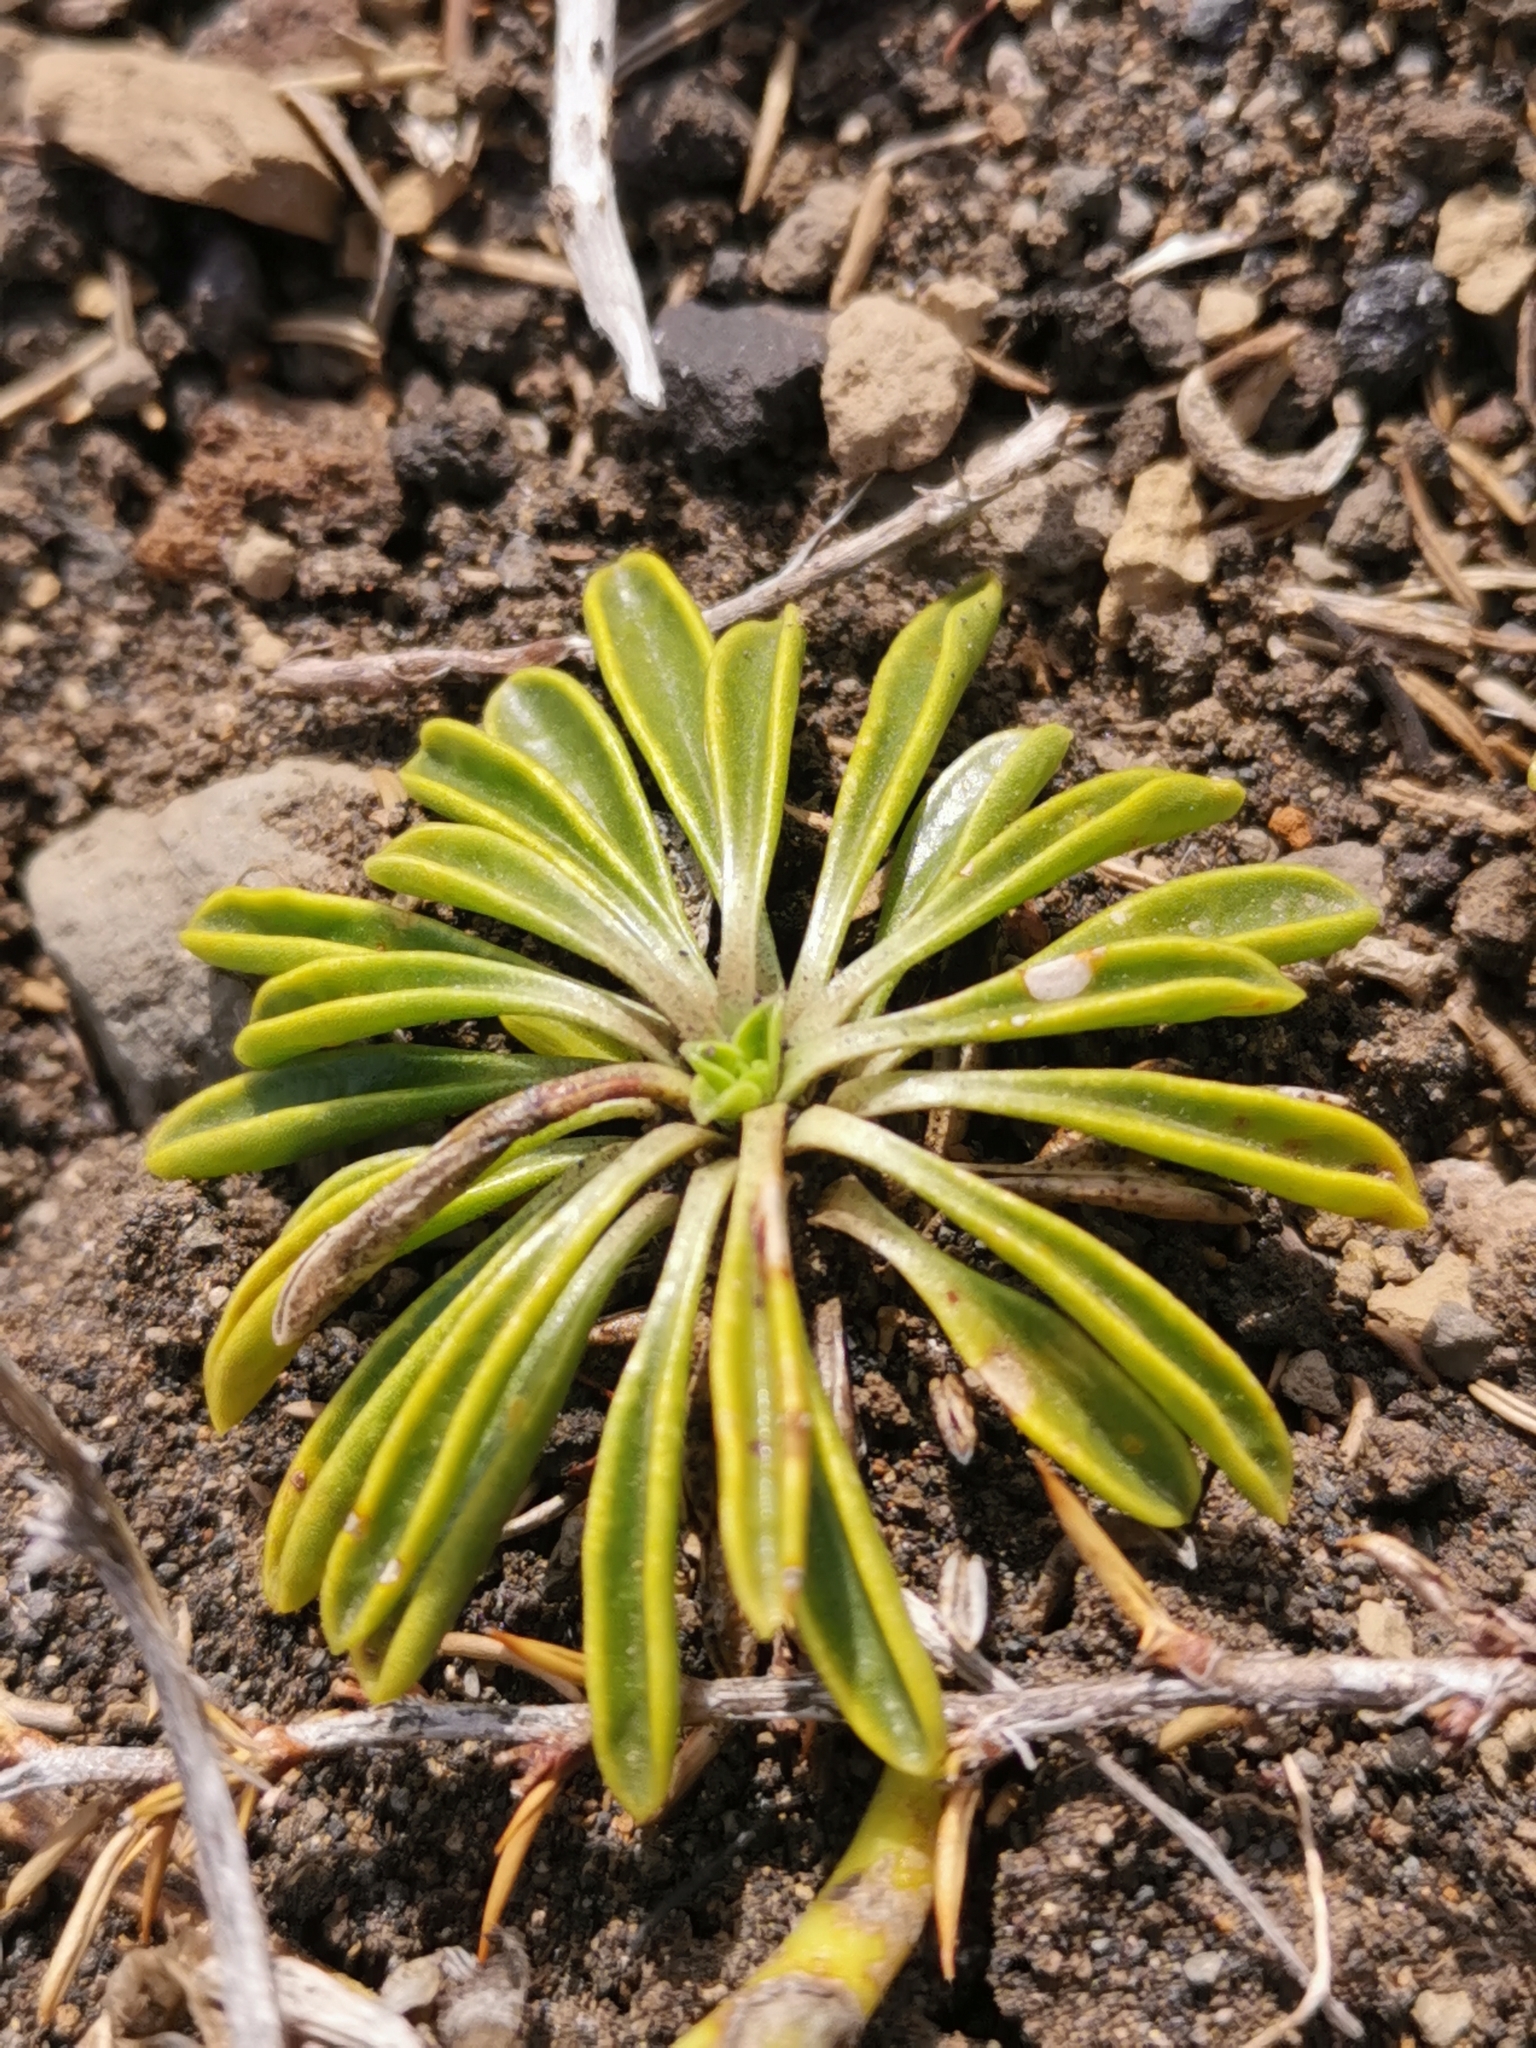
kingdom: Plantae
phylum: Tracheophyta
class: Magnoliopsida
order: Asterales
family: Calyceraceae
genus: Gamocarpha
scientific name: Gamocarpha alpina
